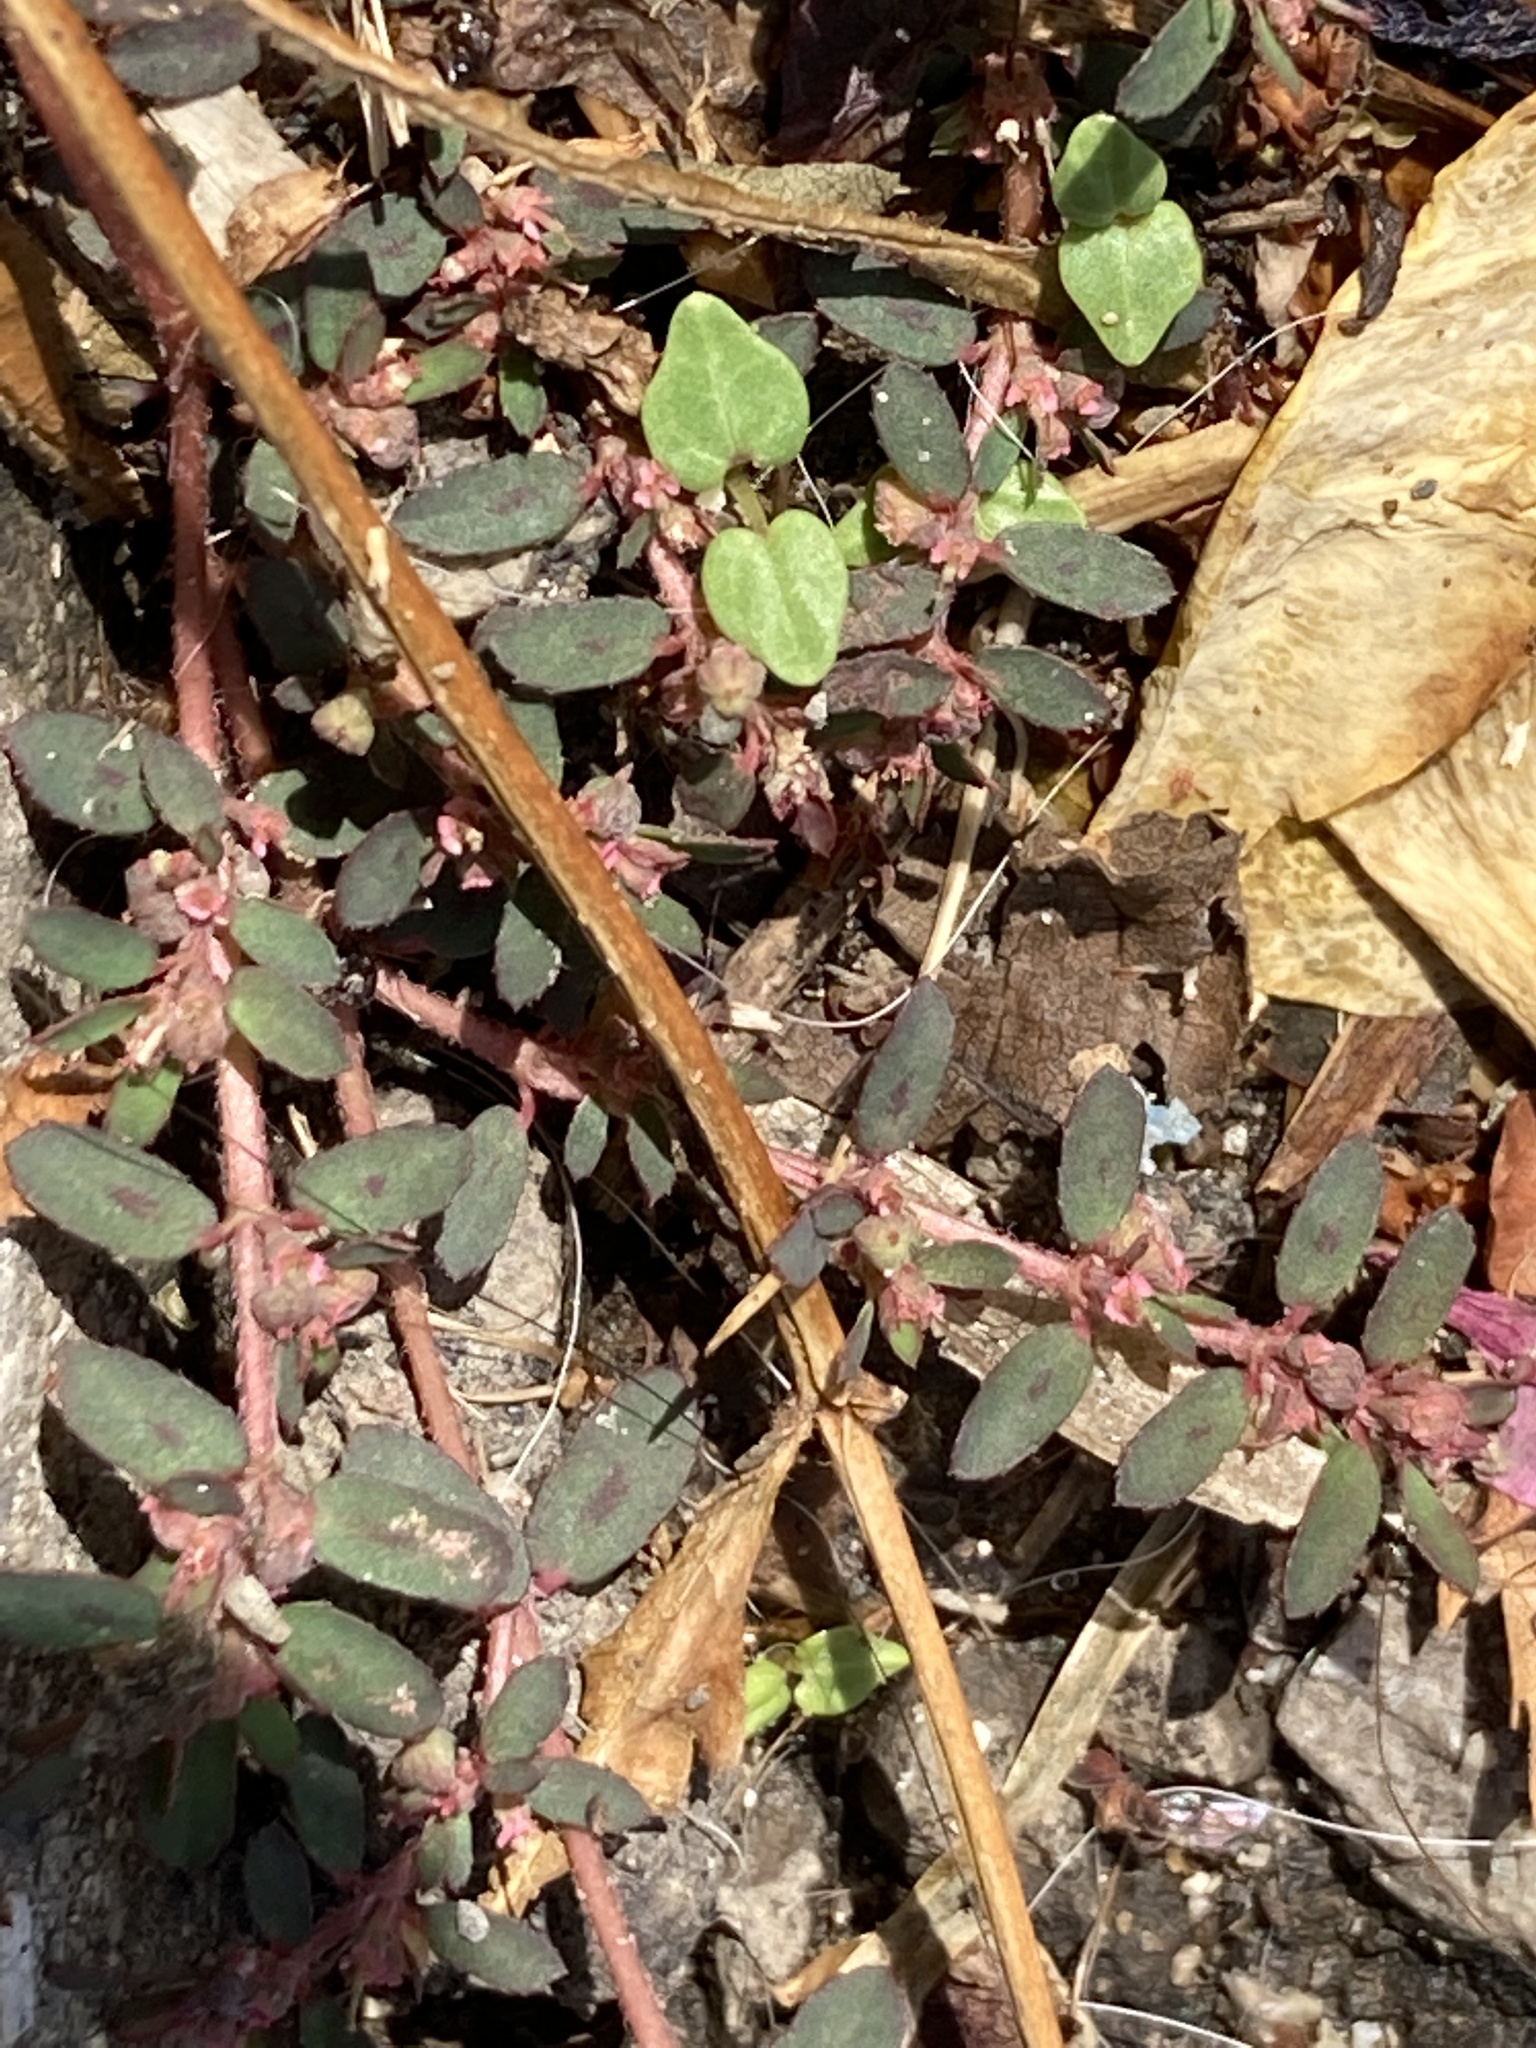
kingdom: Plantae
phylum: Tracheophyta
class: Magnoliopsida
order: Malpighiales
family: Euphorbiaceae
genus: Euphorbia
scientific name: Euphorbia maculata
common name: Spotted spurge
